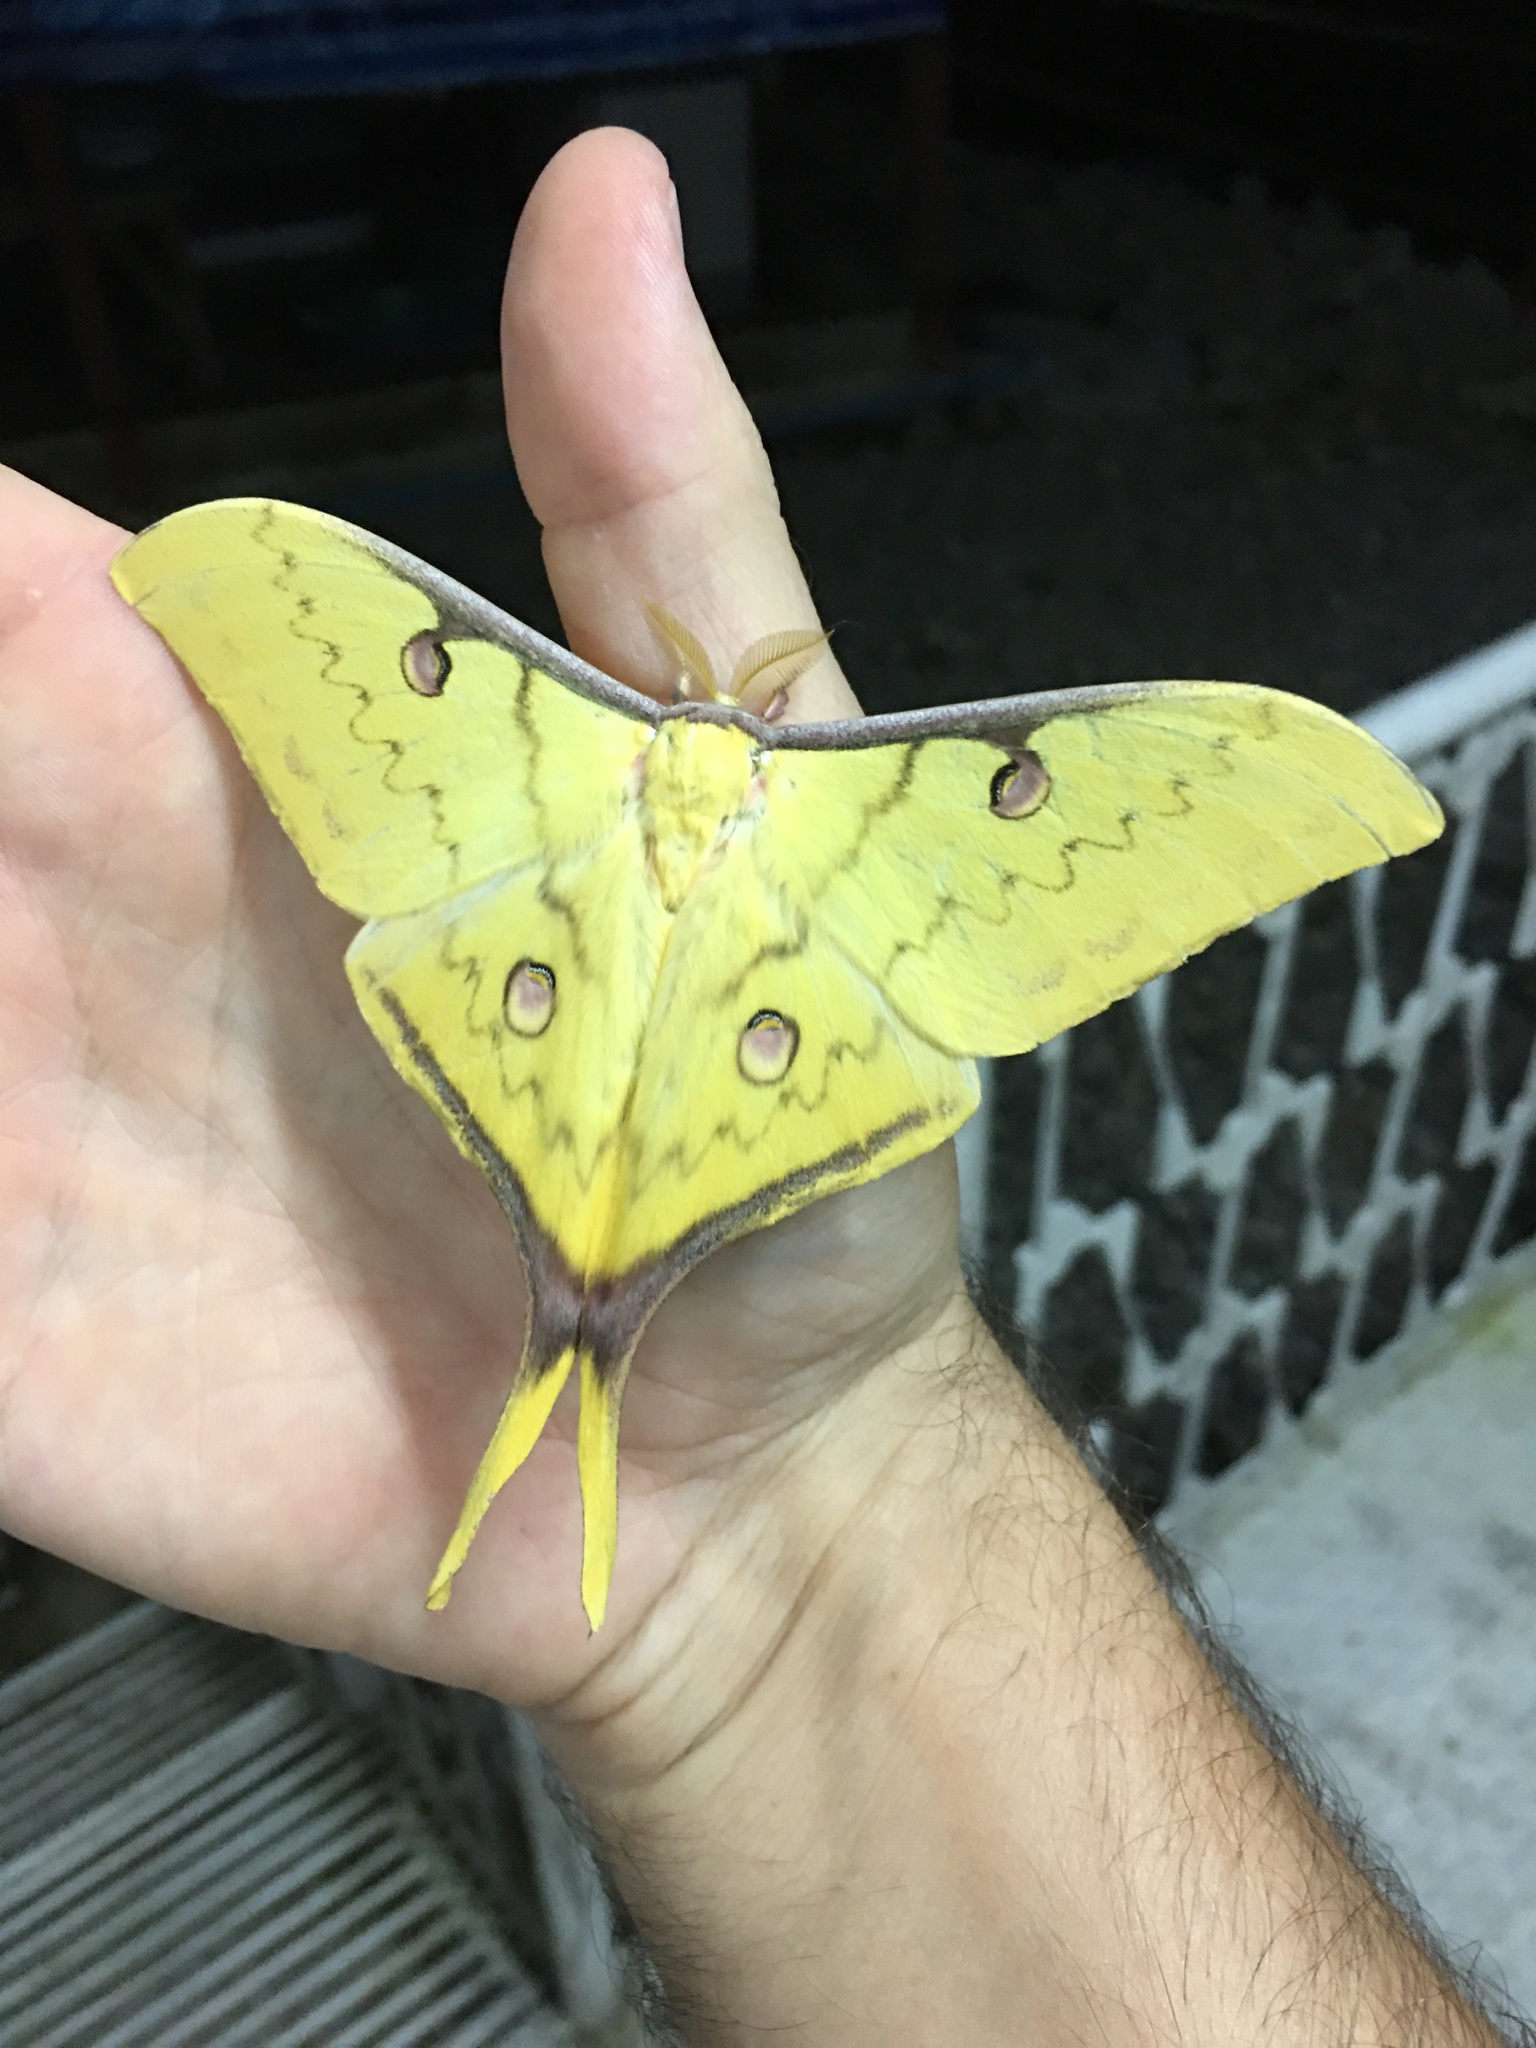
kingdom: Animalia
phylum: Arthropoda
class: Insecta
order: Lepidoptera
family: Saturniidae
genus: Actias
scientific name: Actias sinensis
